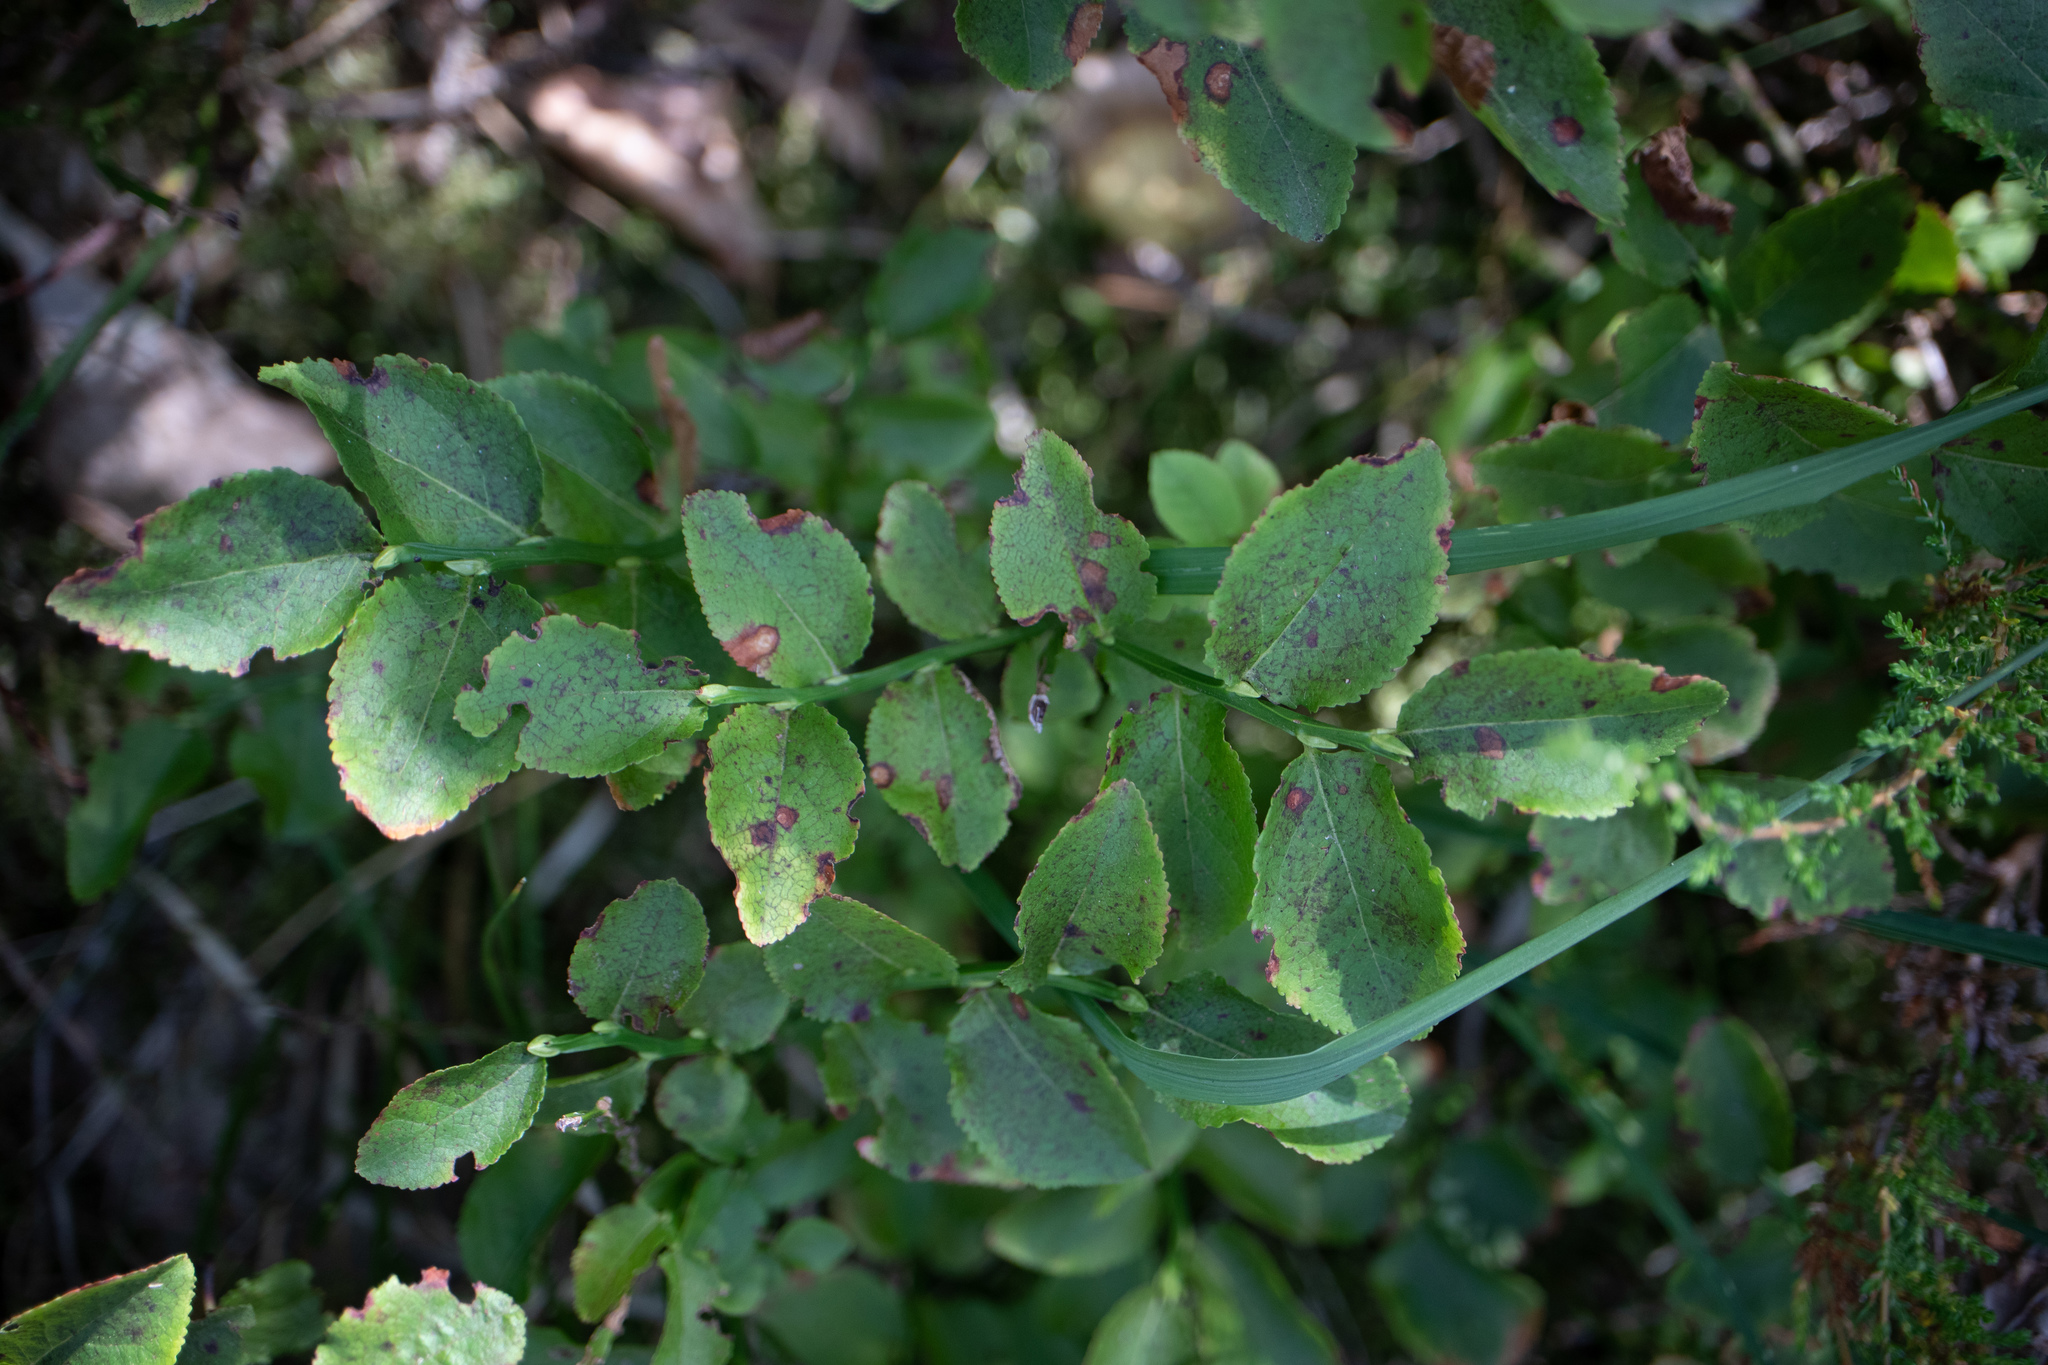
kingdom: Plantae
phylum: Tracheophyta
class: Magnoliopsida
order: Ericales
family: Ericaceae
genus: Vaccinium
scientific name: Vaccinium myrtillus
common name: Bilberry
